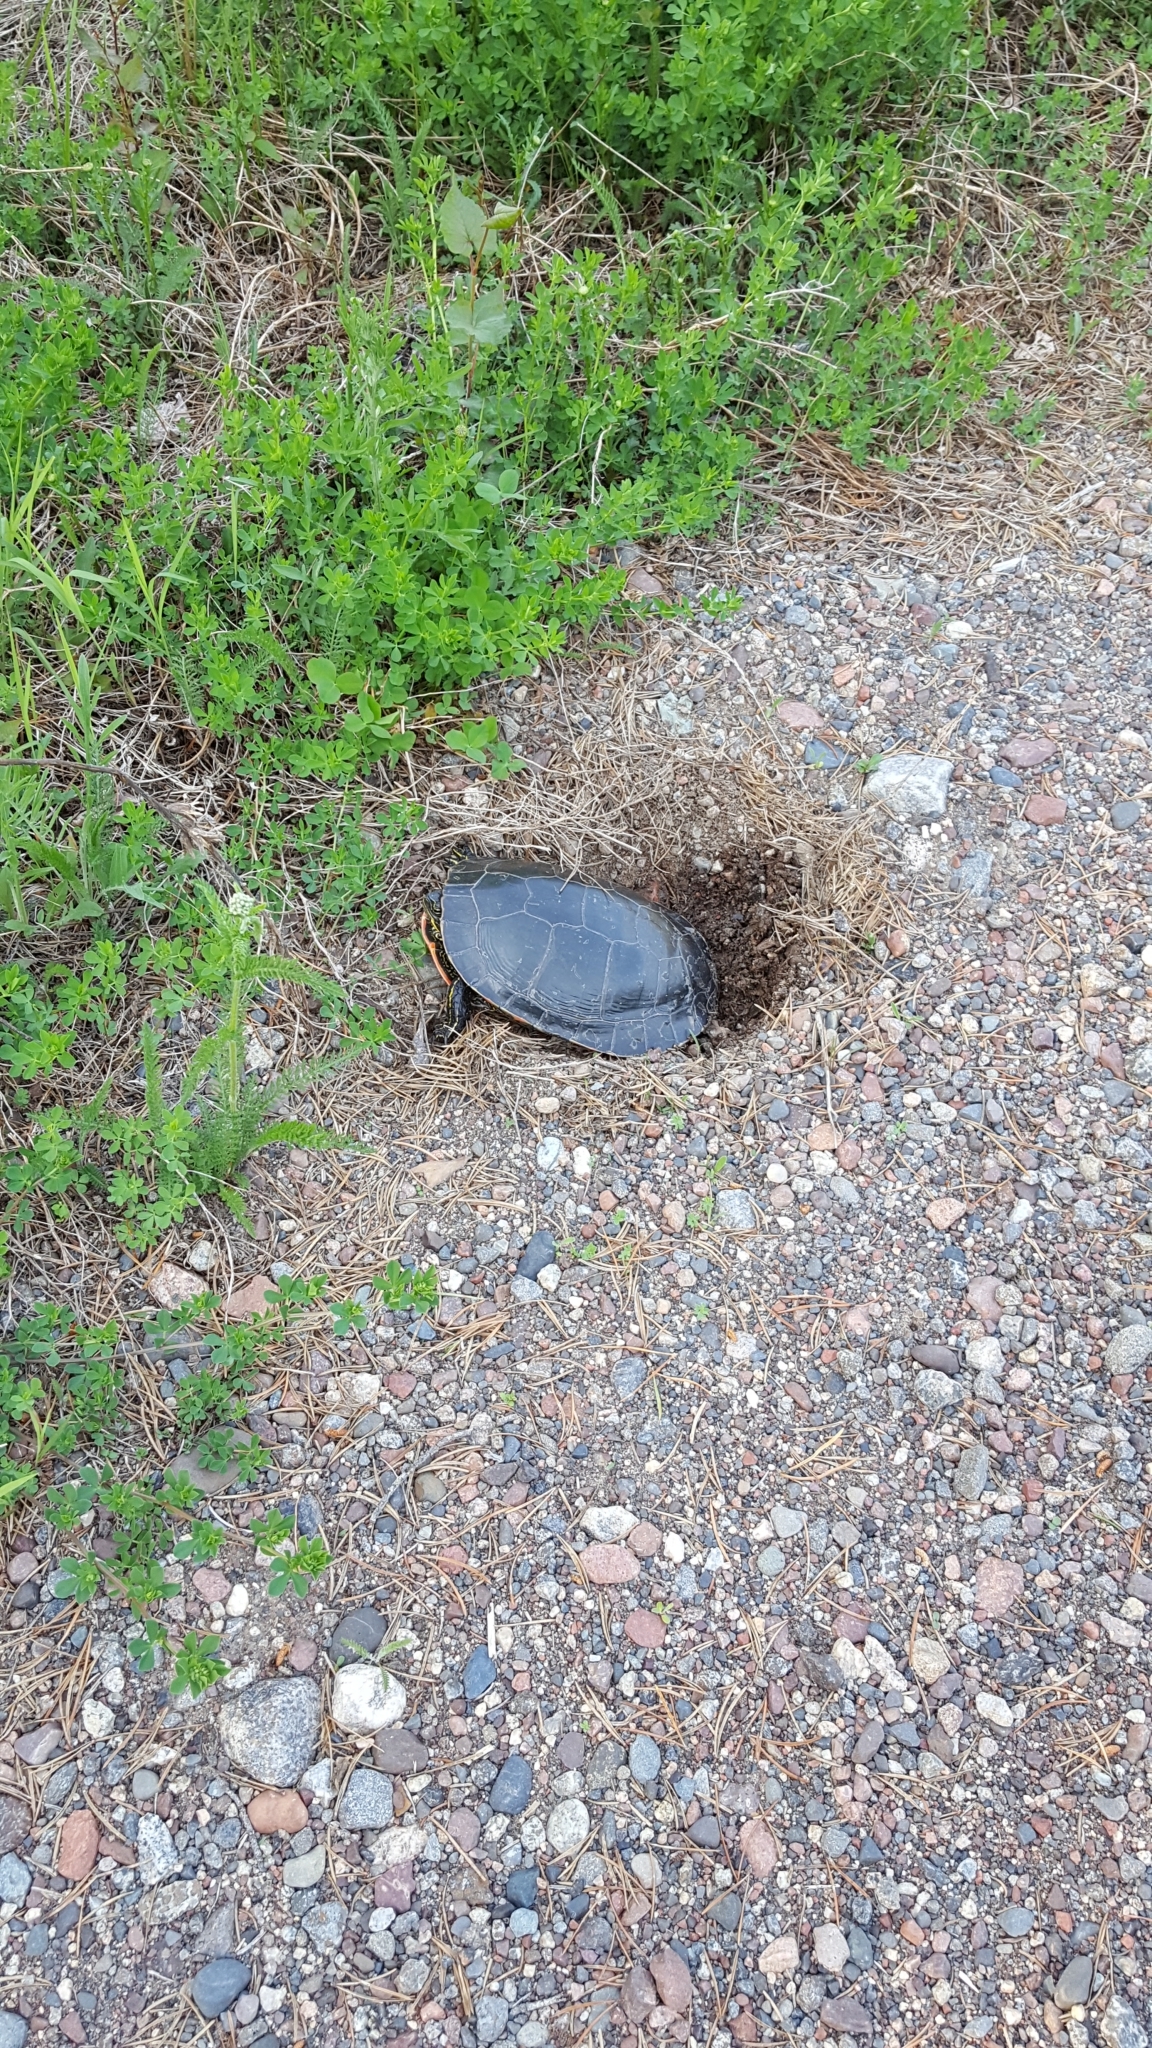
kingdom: Animalia
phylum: Chordata
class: Testudines
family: Emydidae
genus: Chrysemys
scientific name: Chrysemys picta
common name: Painted turtle
